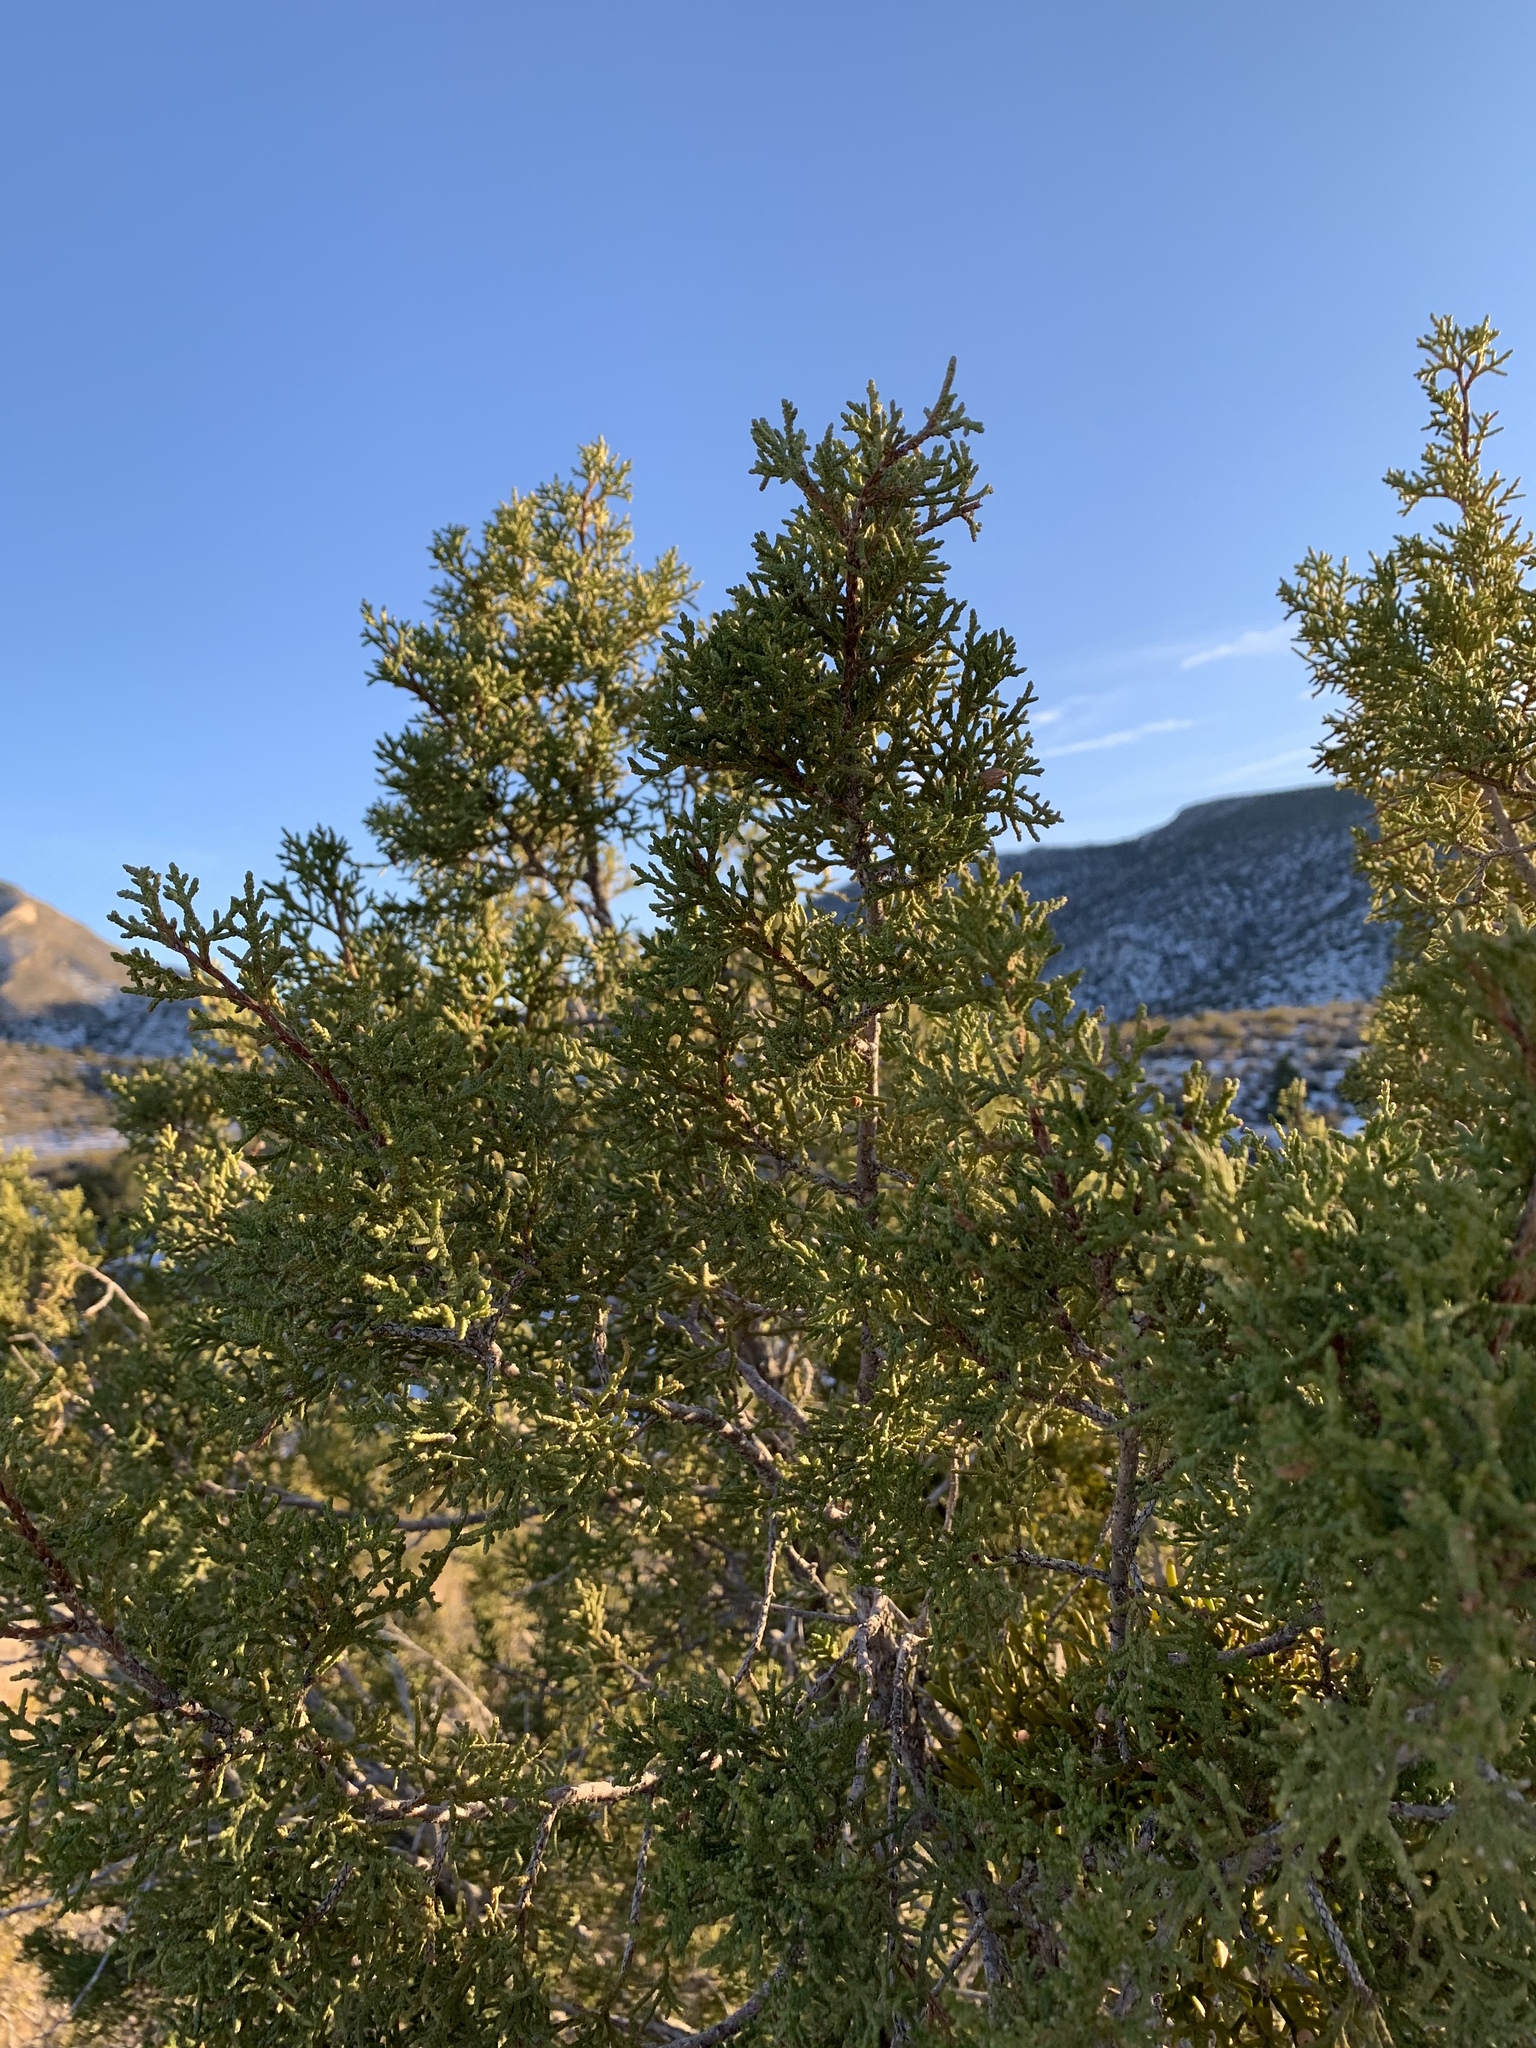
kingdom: Plantae
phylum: Tracheophyta
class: Pinopsida
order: Pinales
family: Cupressaceae
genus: Juniperus
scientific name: Juniperus monosperma
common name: One-seed juniper
